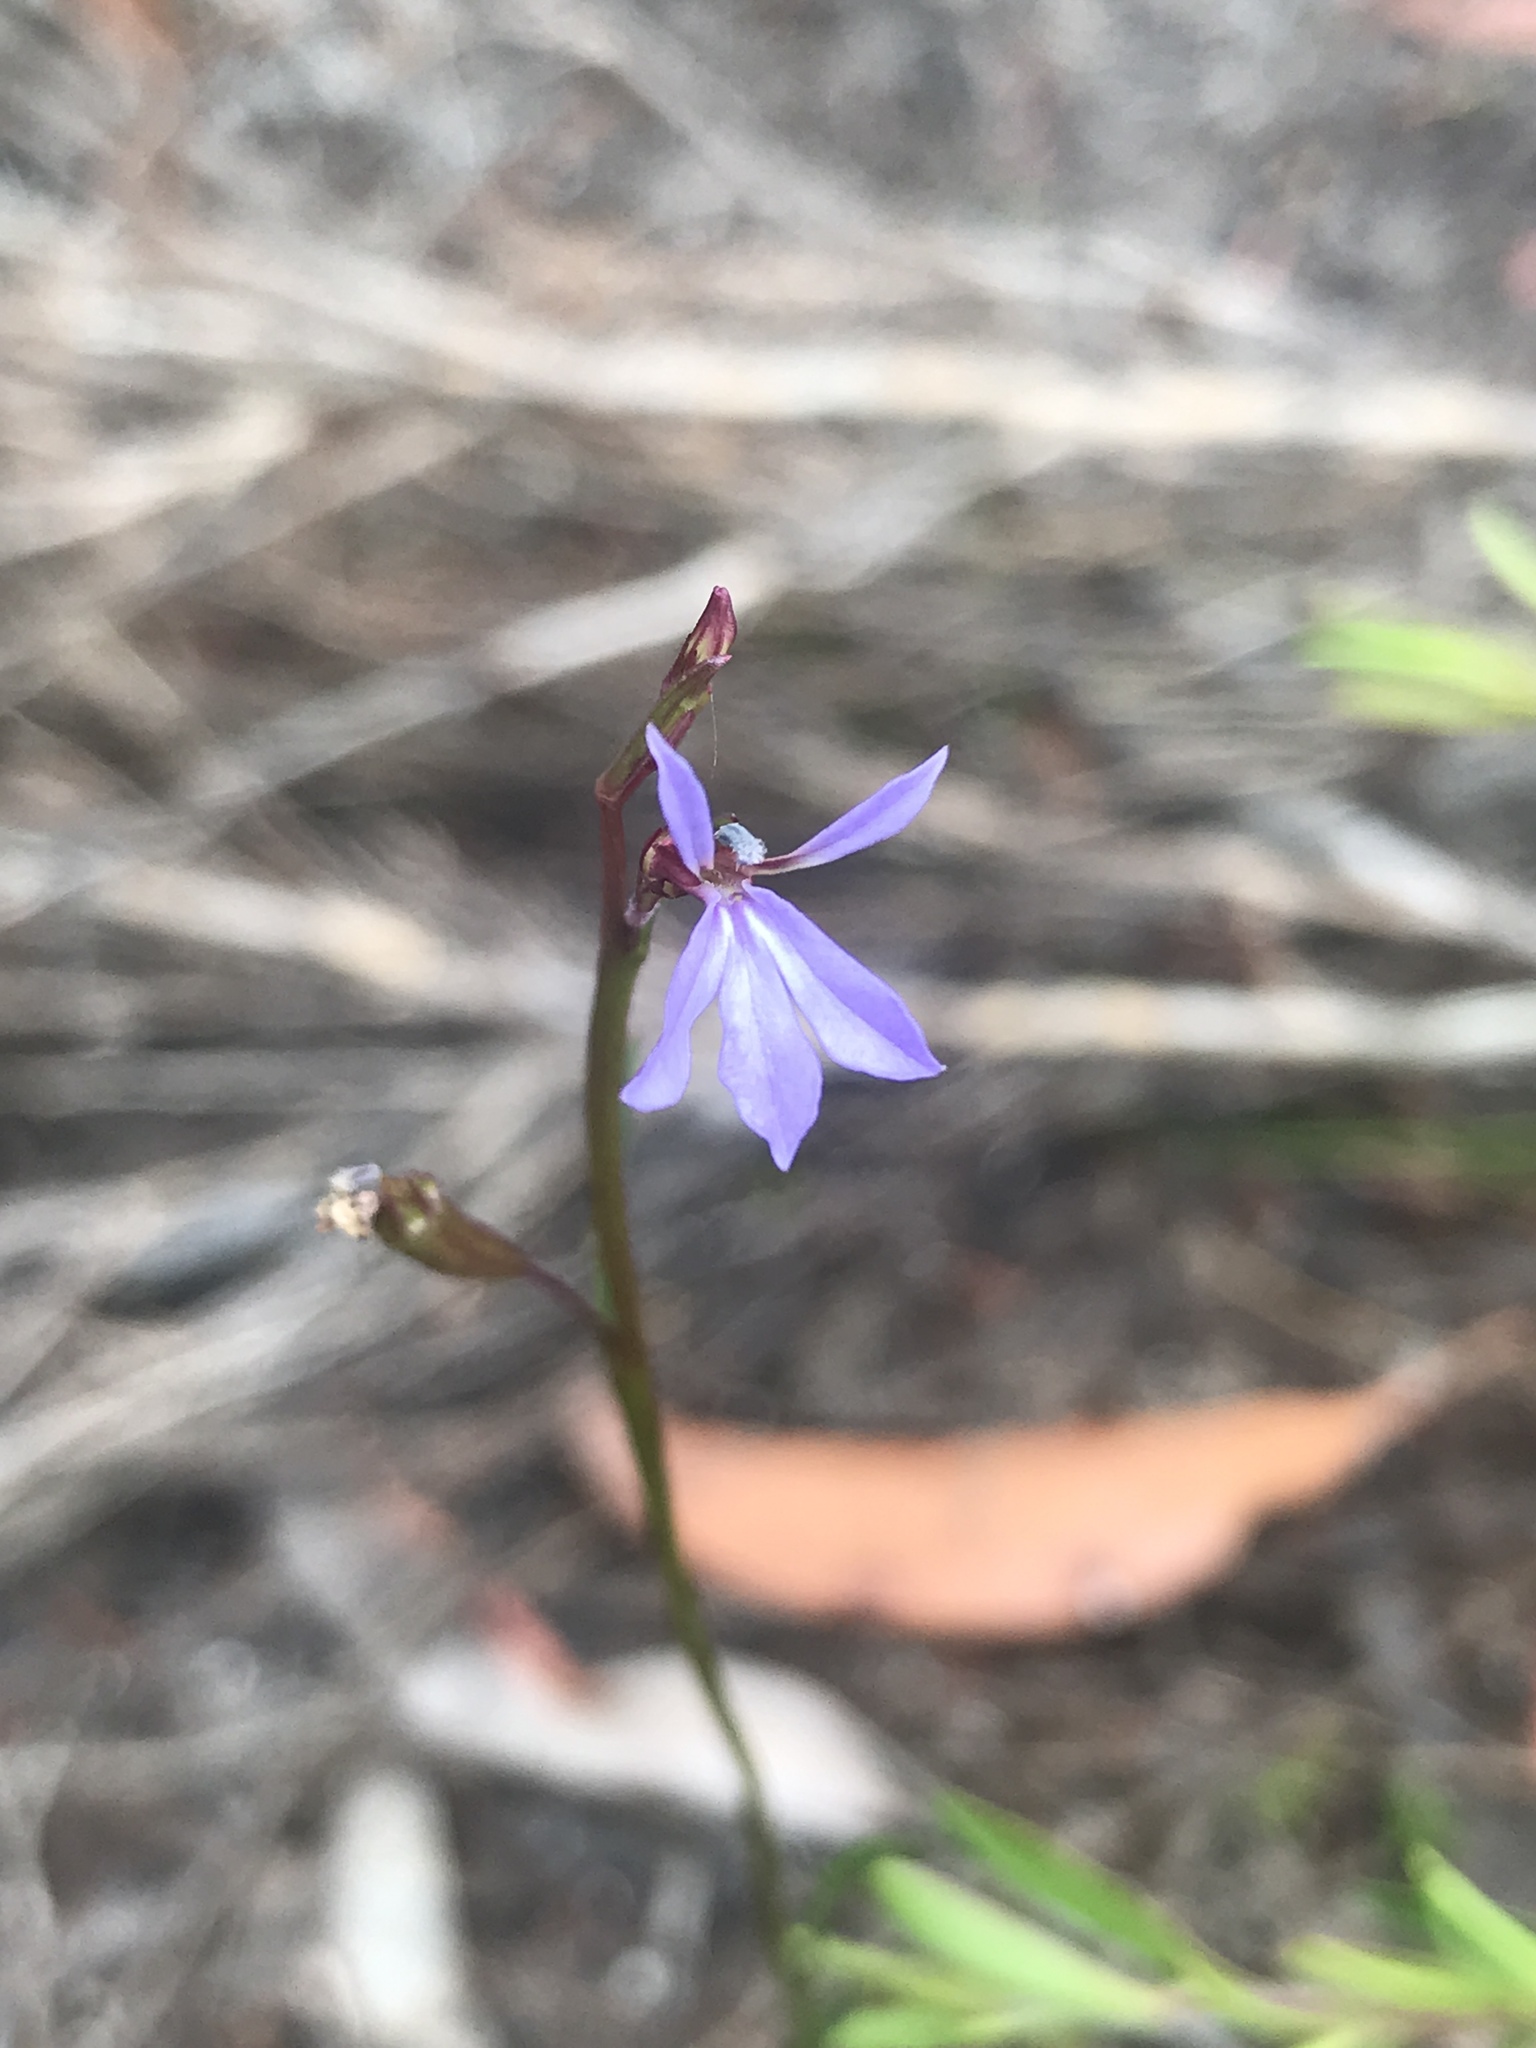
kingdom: Plantae
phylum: Tracheophyta
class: Magnoliopsida
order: Asterales
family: Campanulaceae
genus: Lobelia
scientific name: Lobelia anceps
